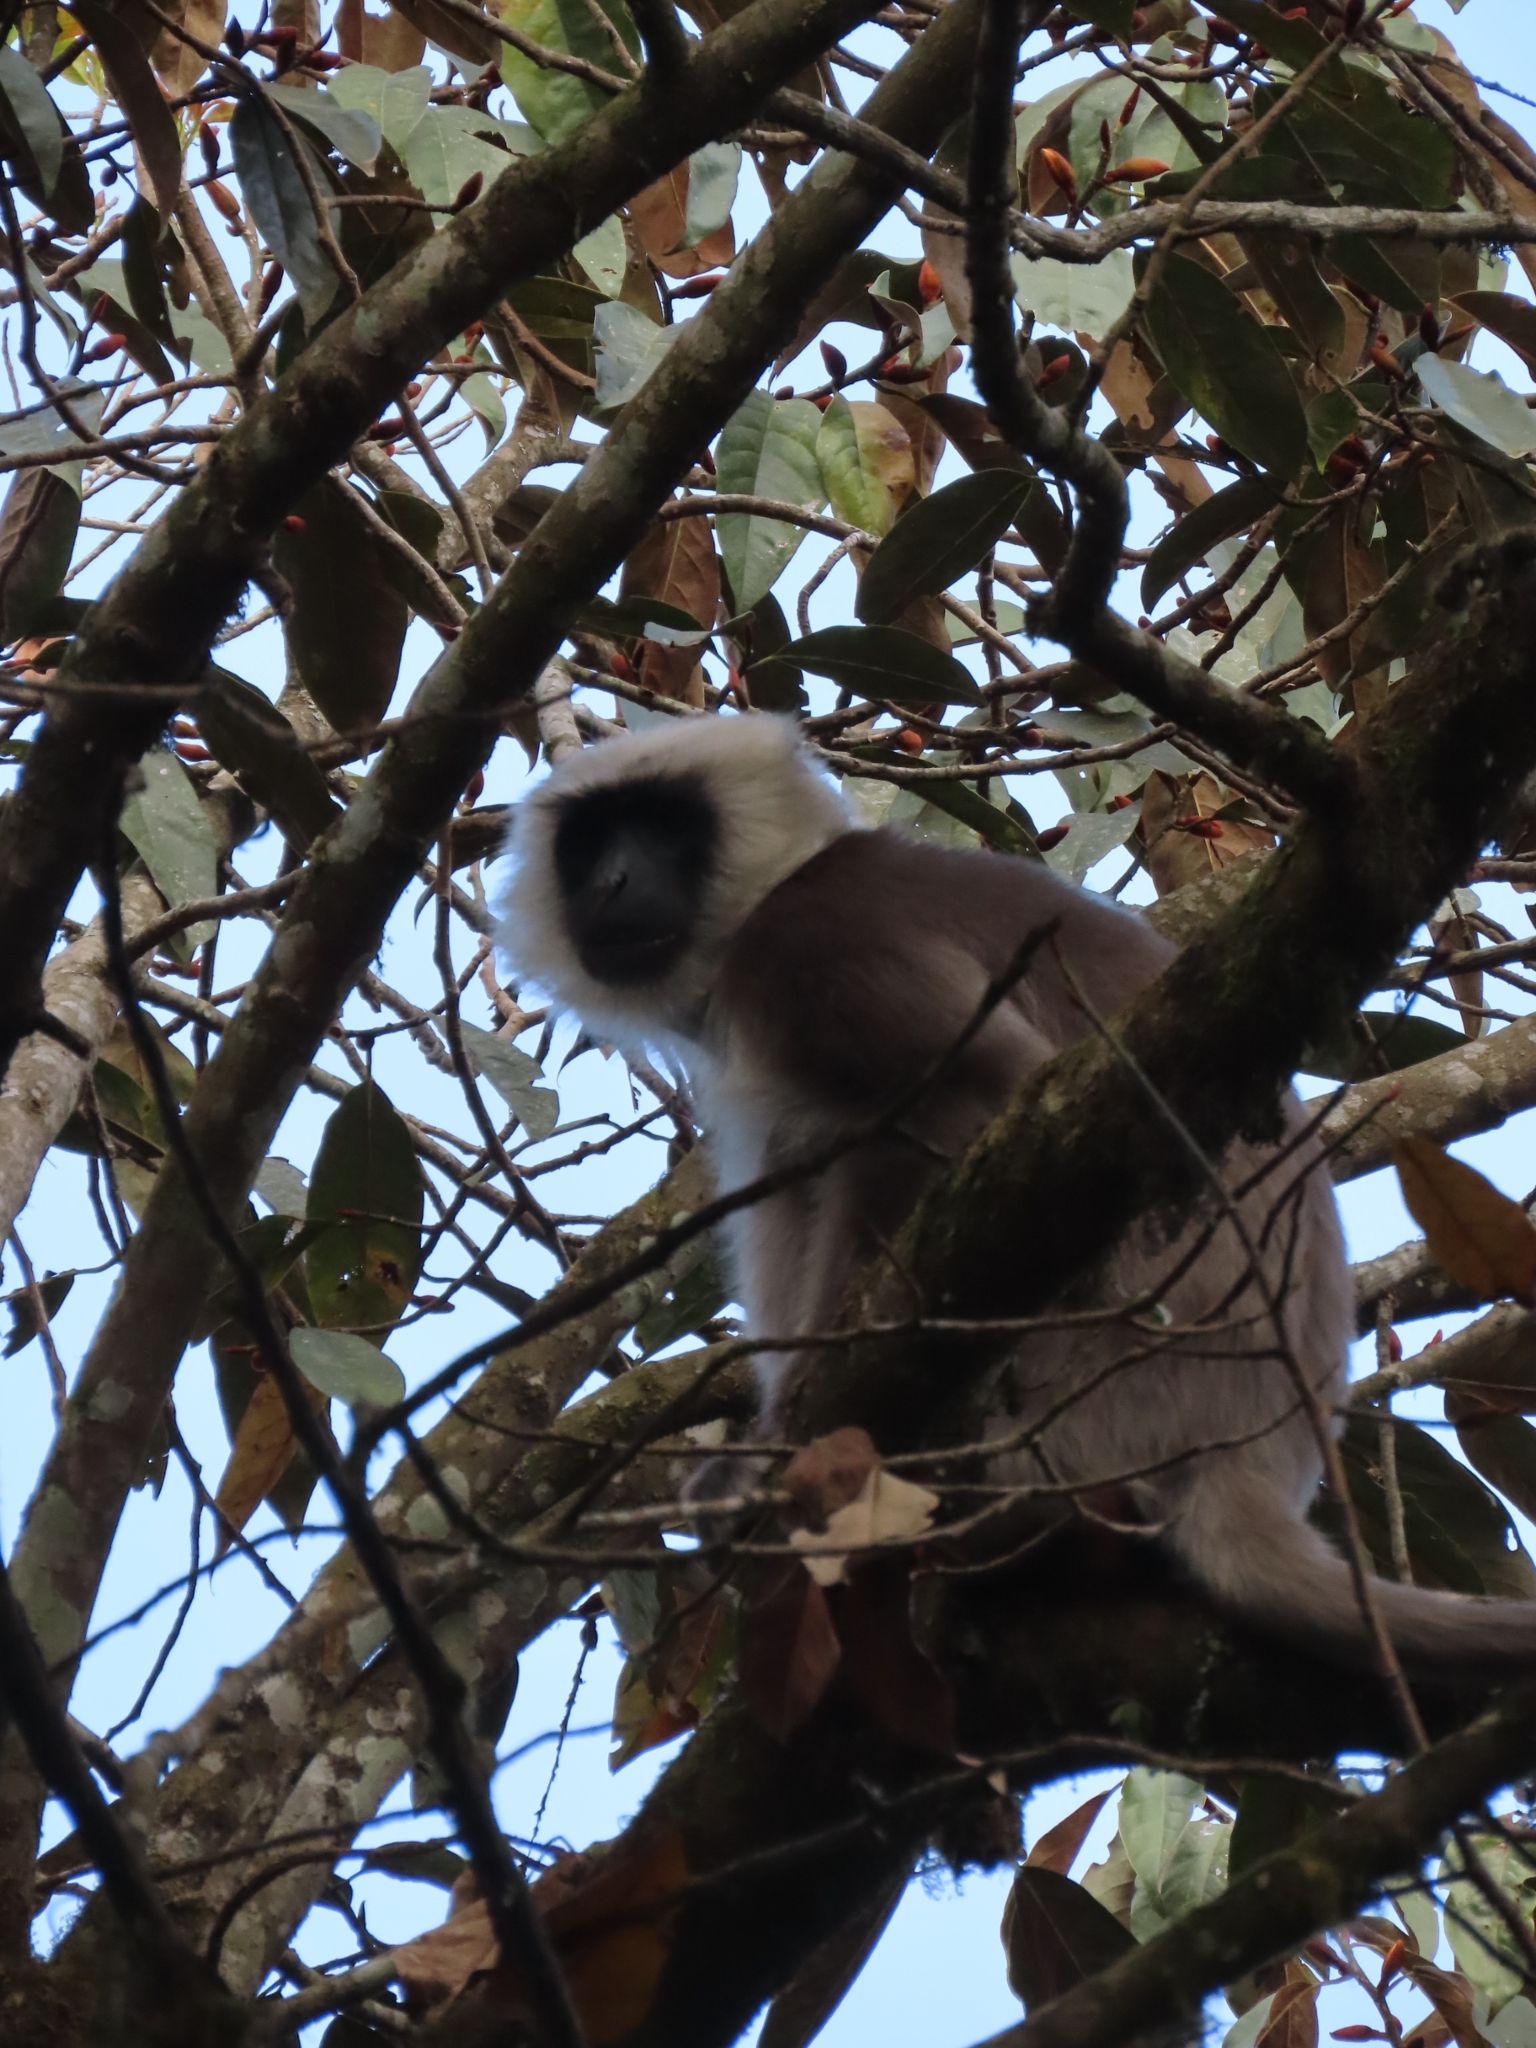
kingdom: Animalia
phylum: Chordata
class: Mammalia
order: Primates
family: Cercopithecidae
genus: Semnopithecus
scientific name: Semnopithecus schistaceus
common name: Nepal gray langur
